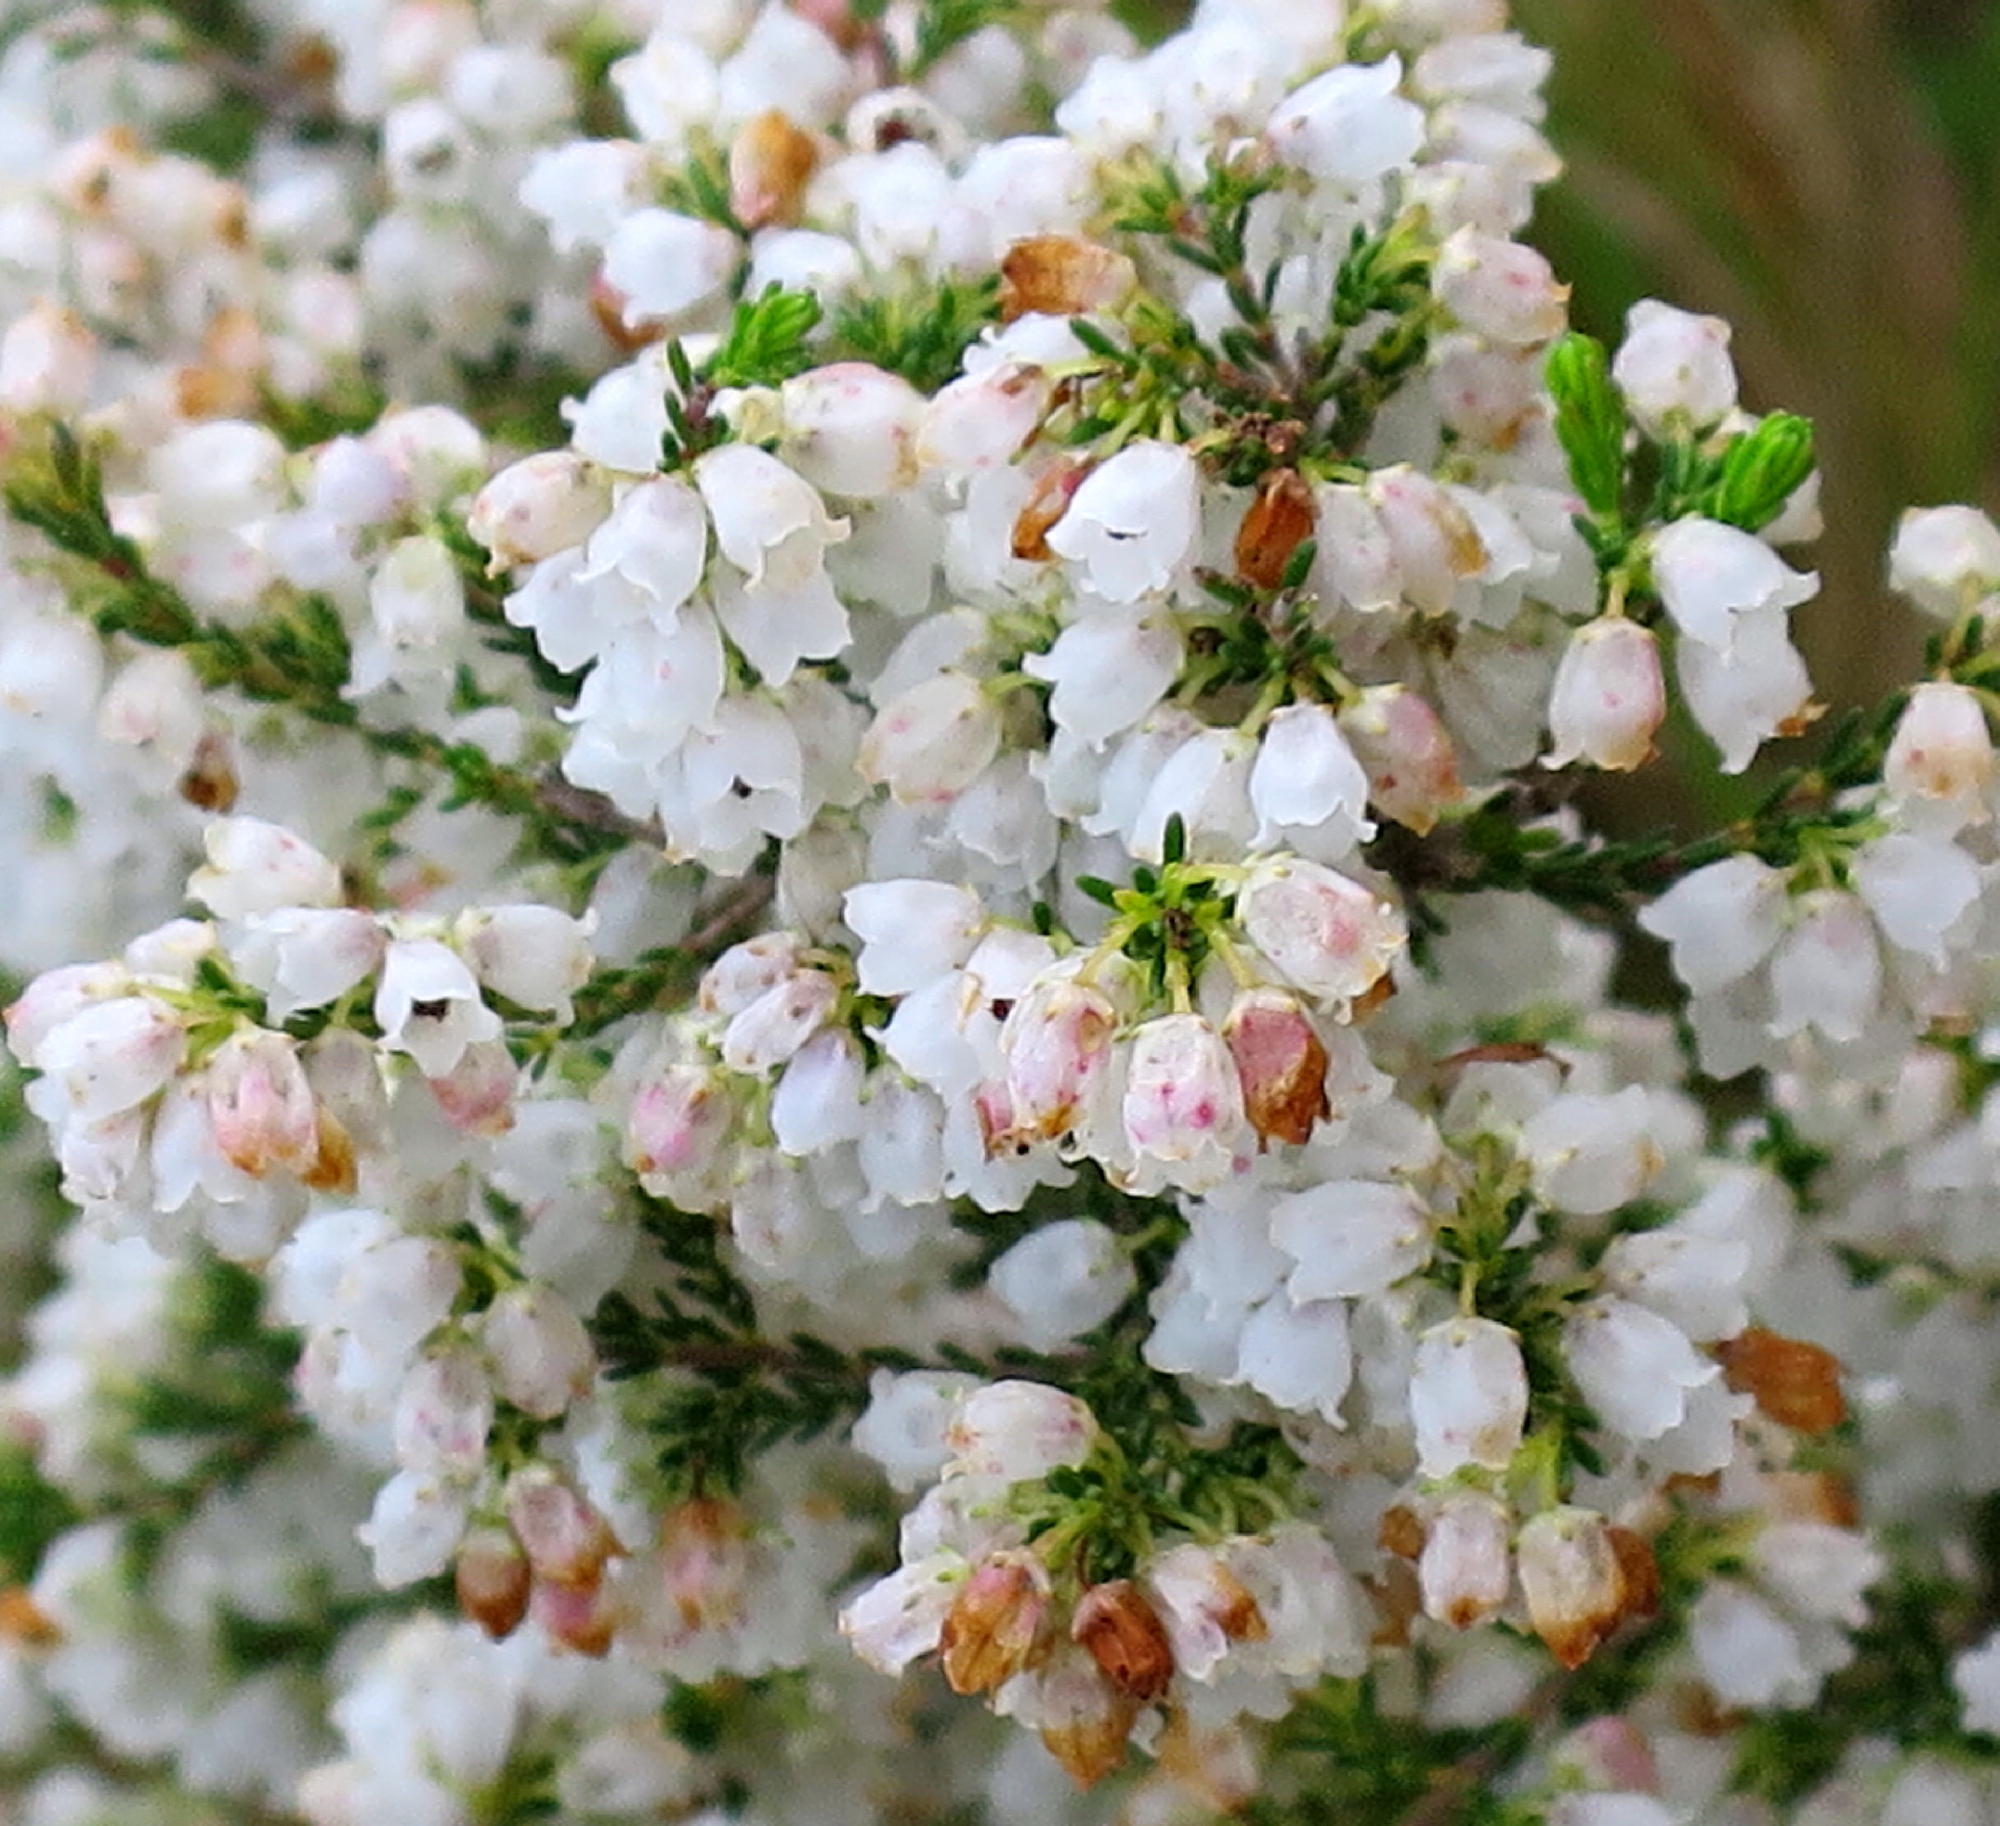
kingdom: Plantae
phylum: Tracheophyta
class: Magnoliopsida
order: Ericales
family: Ericaceae
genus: Erica
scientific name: Erica quadrangularis
